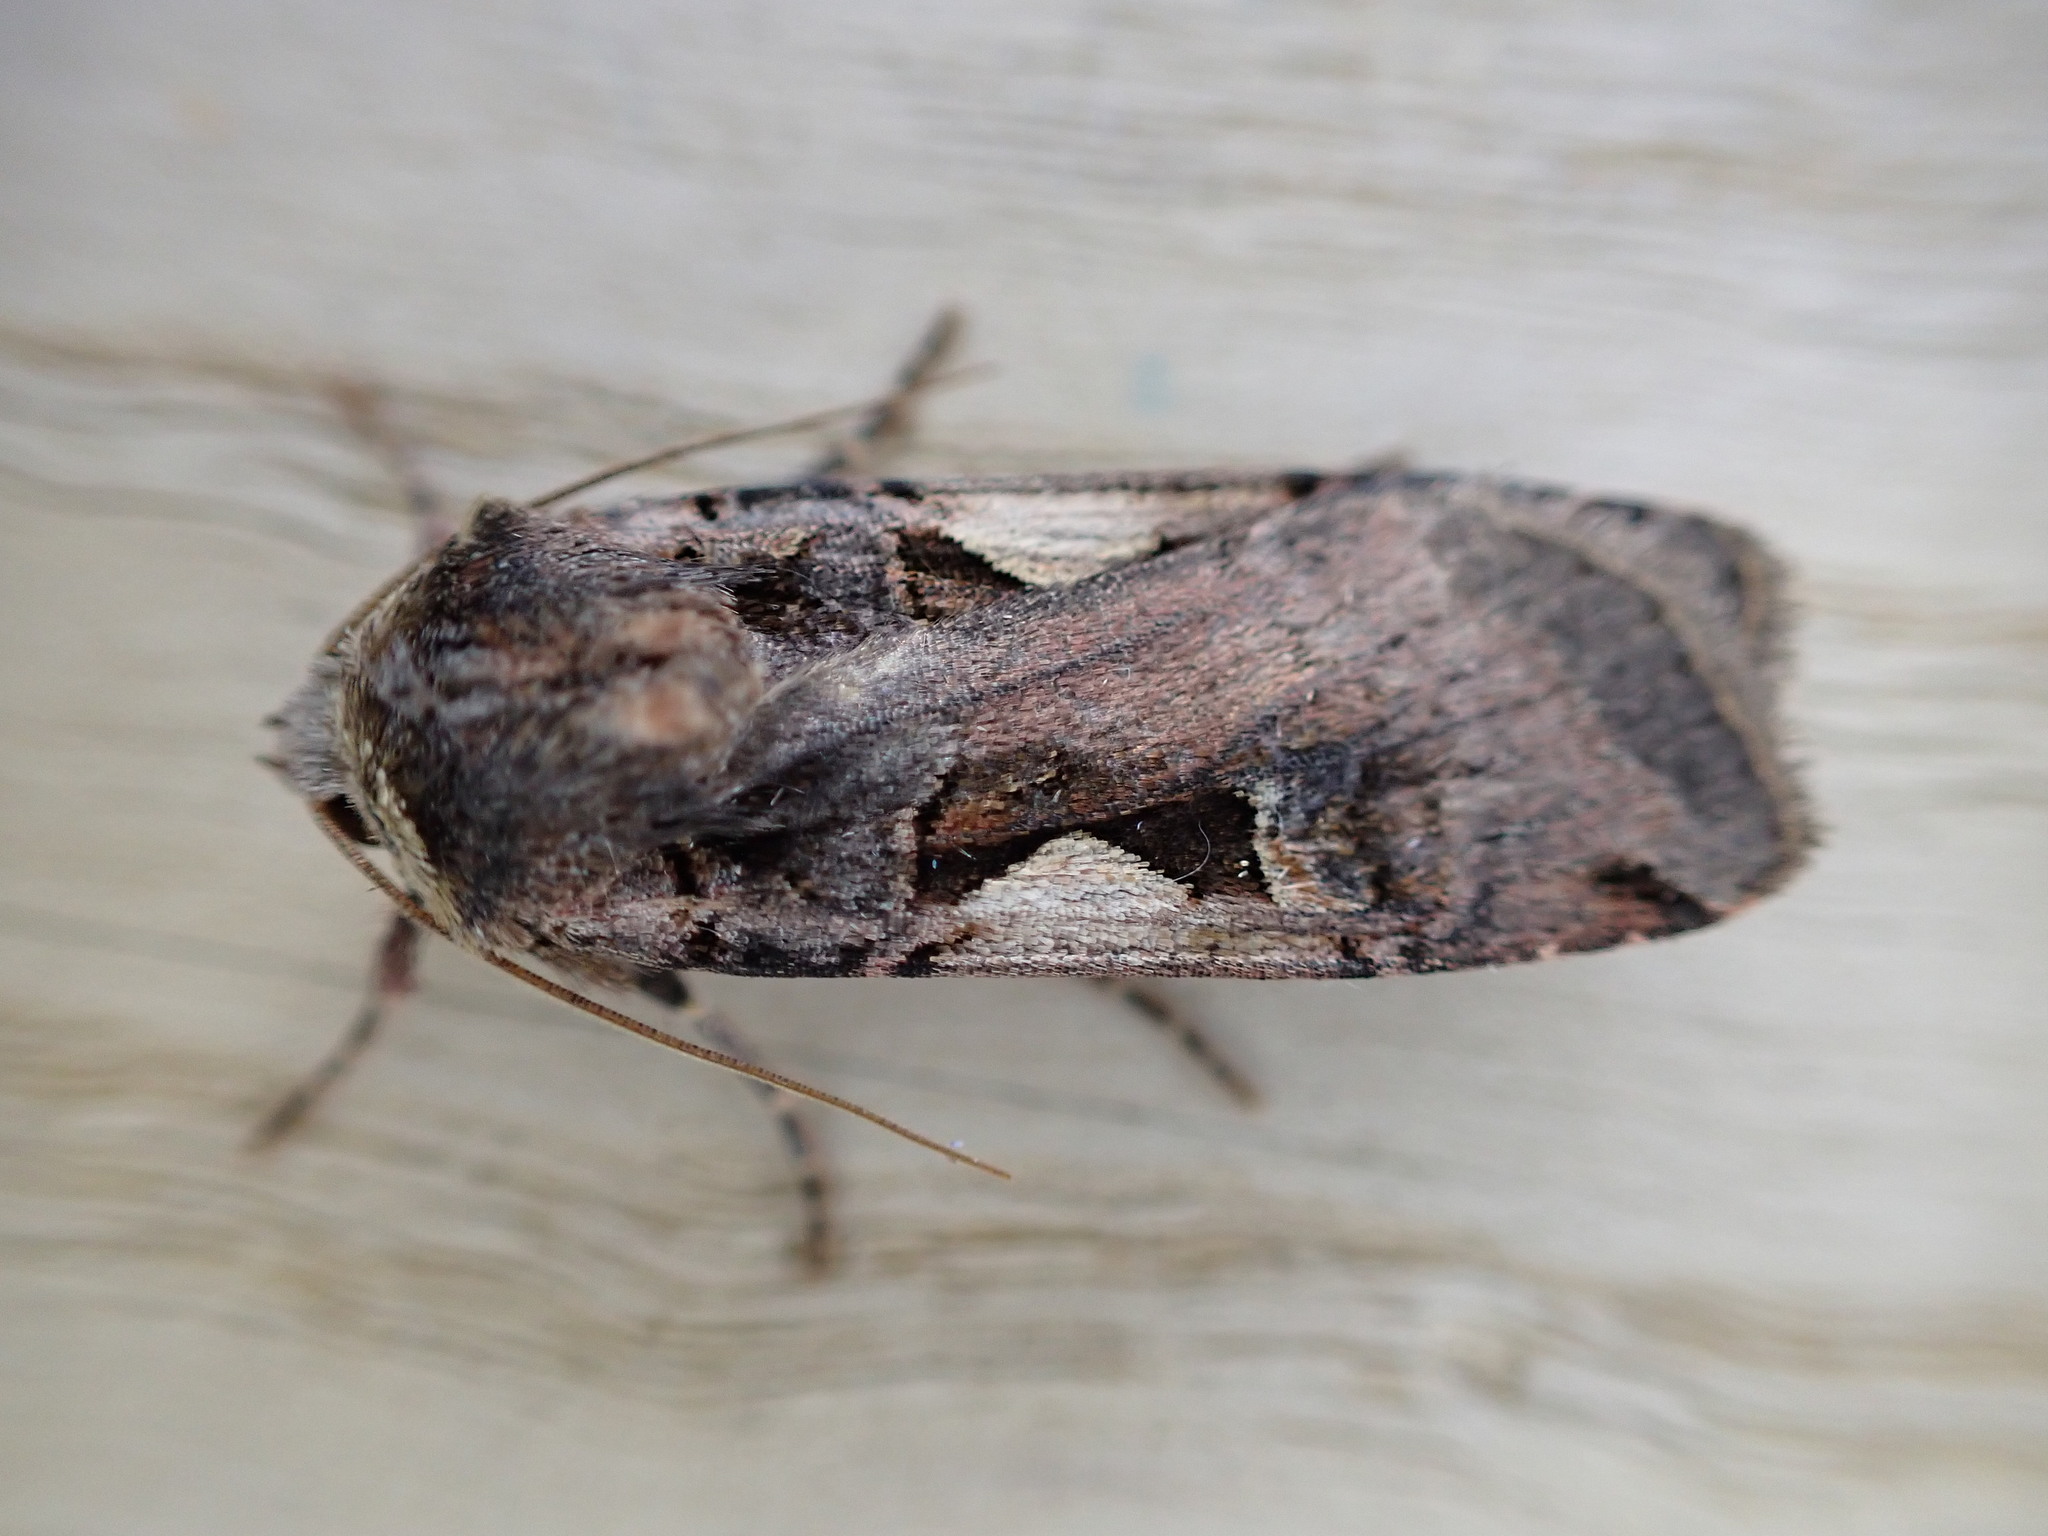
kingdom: Animalia
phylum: Arthropoda
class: Insecta
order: Lepidoptera
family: Noctuidae
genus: Xestia
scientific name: Xestia c-nigrum
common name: Setaceous hebrew character
